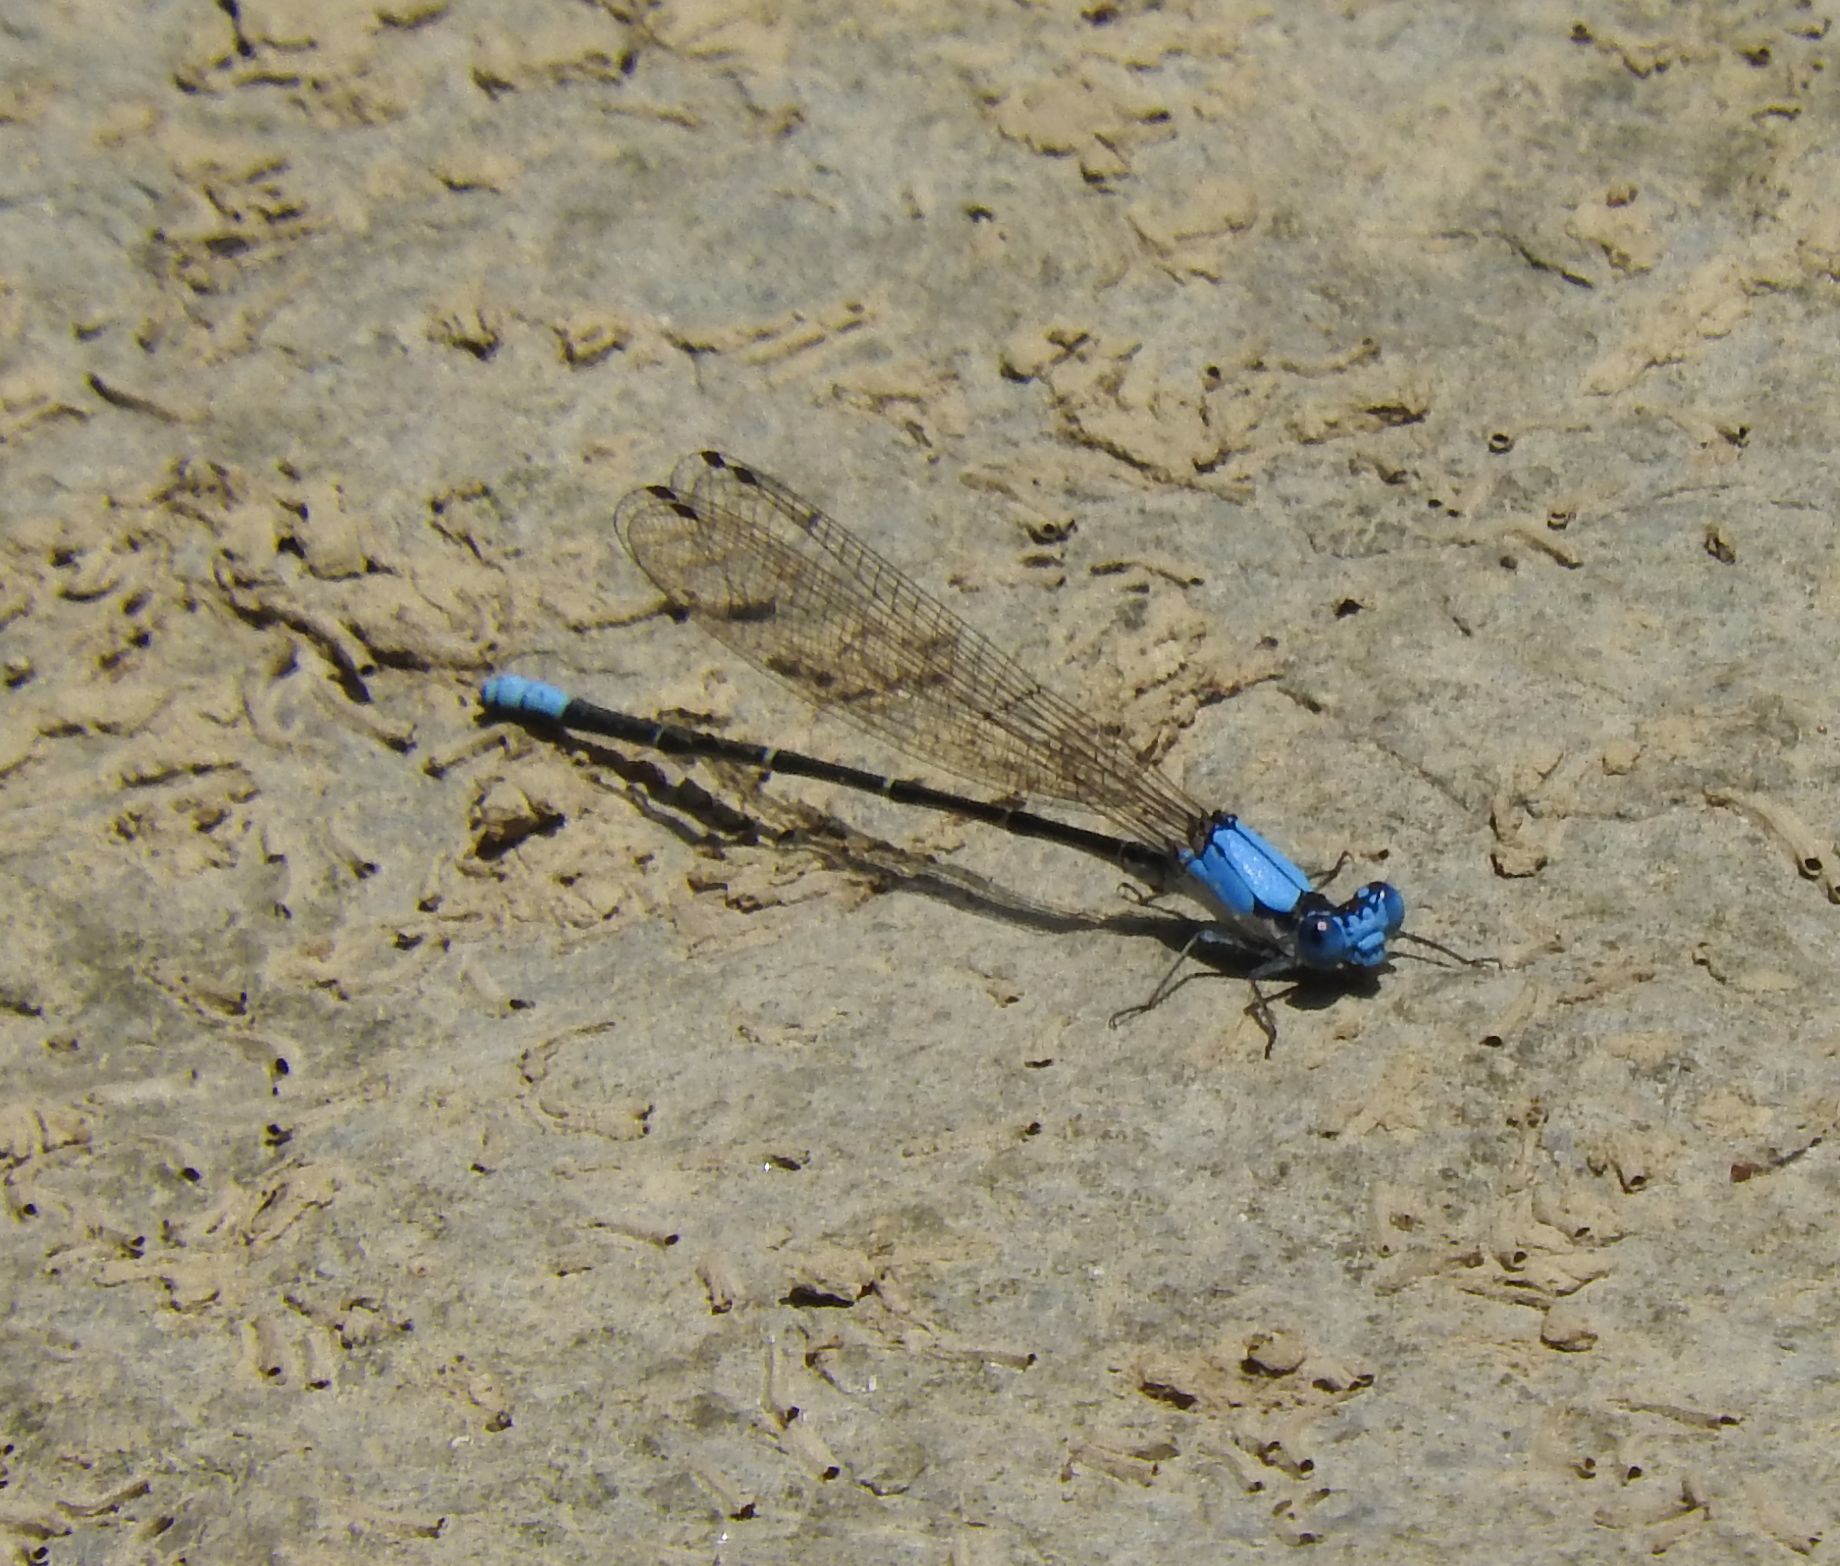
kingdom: Animalia
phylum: Arthropoda
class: Insecta
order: Odonata
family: Coenagrionidae
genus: Argia
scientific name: Argia apicalis
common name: Blue-fronted dancer
